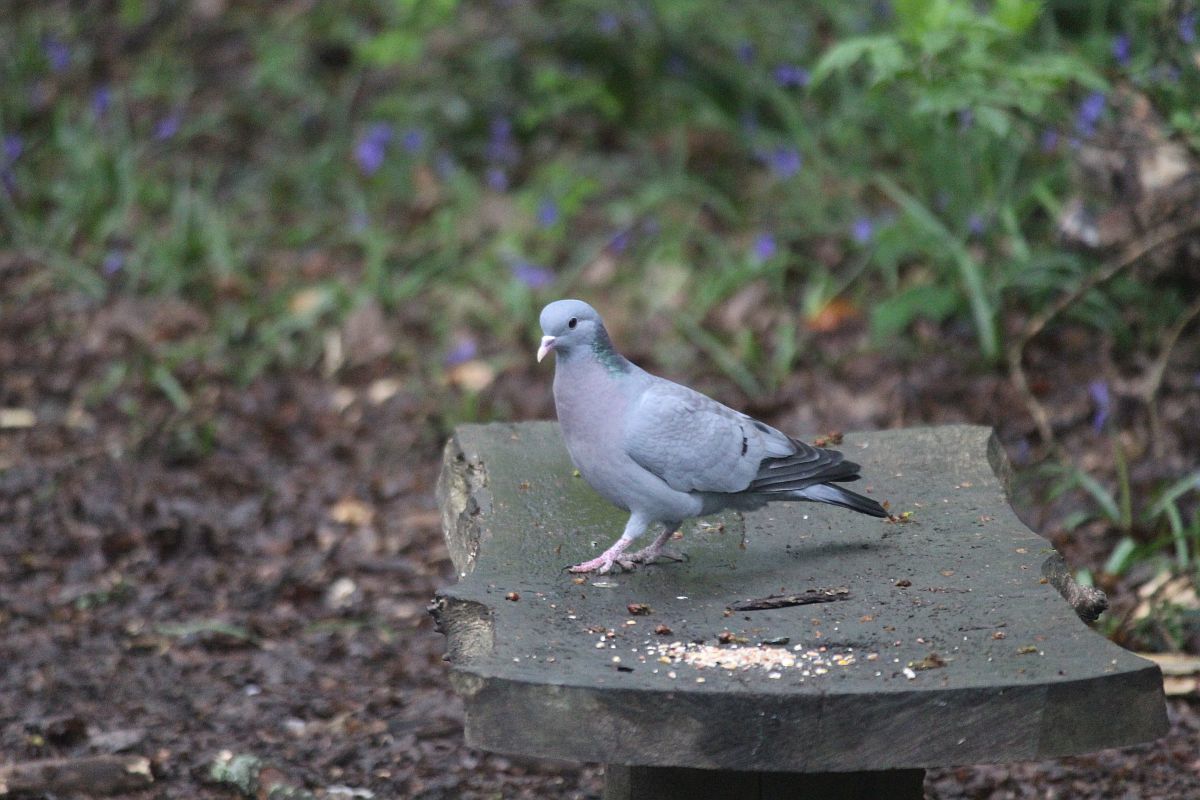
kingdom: Animalia
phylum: Chordata
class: Aves
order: Columbiformes
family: Columbidae
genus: Columba
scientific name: Columba oenas
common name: Stock dove
